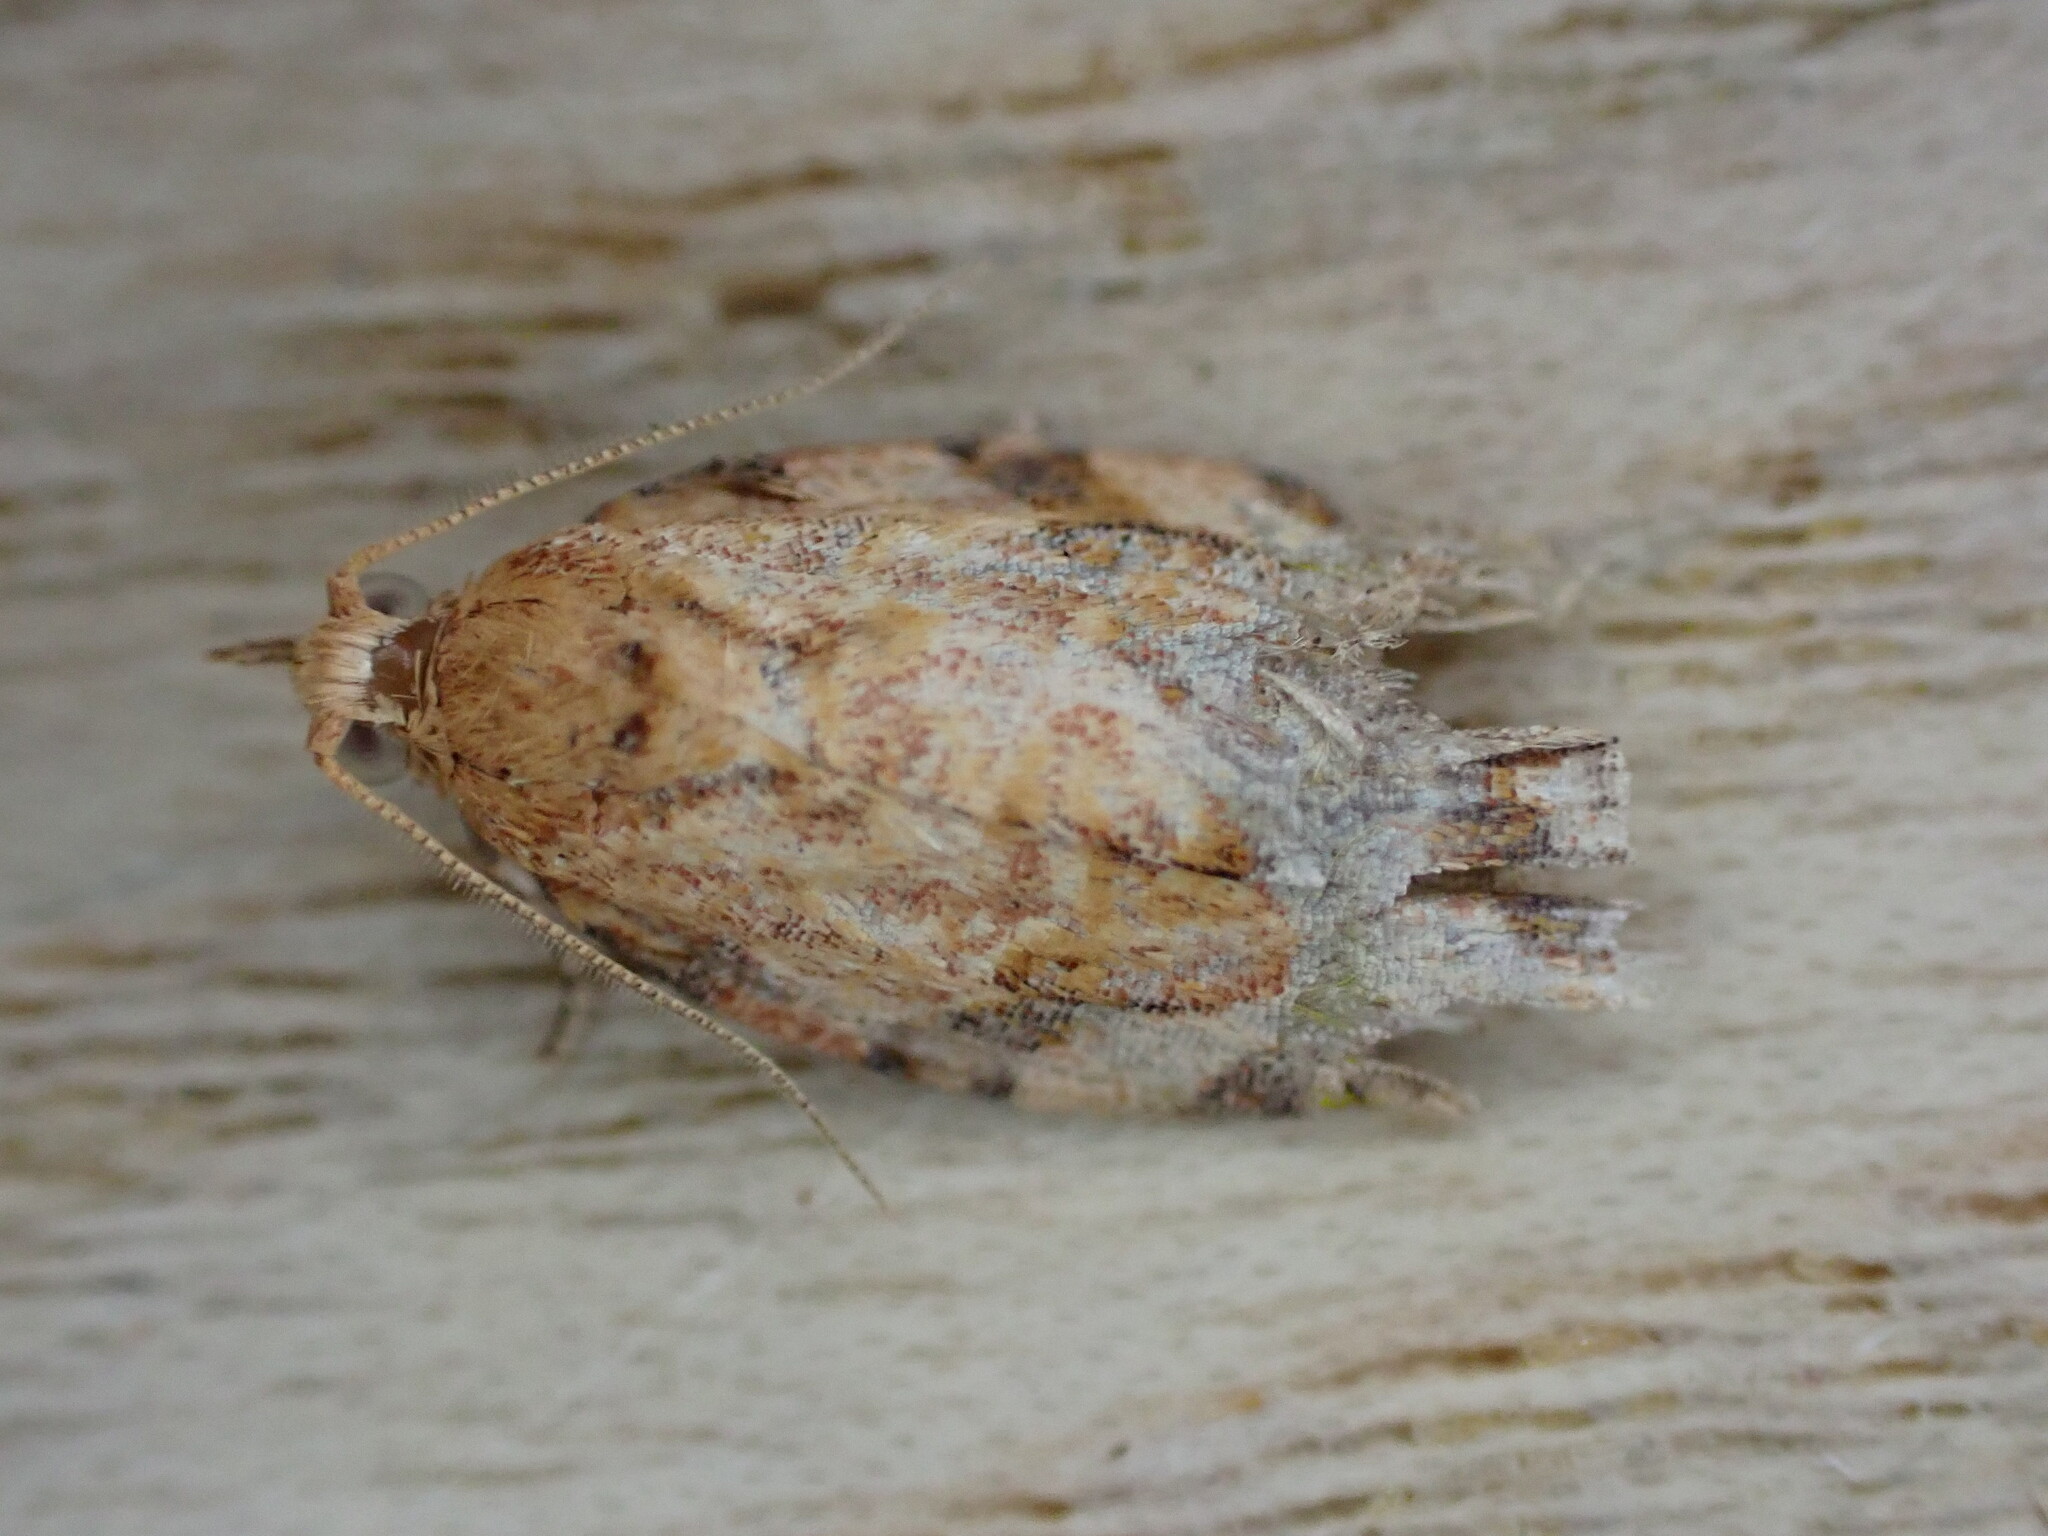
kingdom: Animalia
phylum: Arthropoda
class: Insecta
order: Lepidoptera
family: Tortricidae
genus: Epiphyas
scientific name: Epiphyas postvittana
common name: Light brown apple moth
